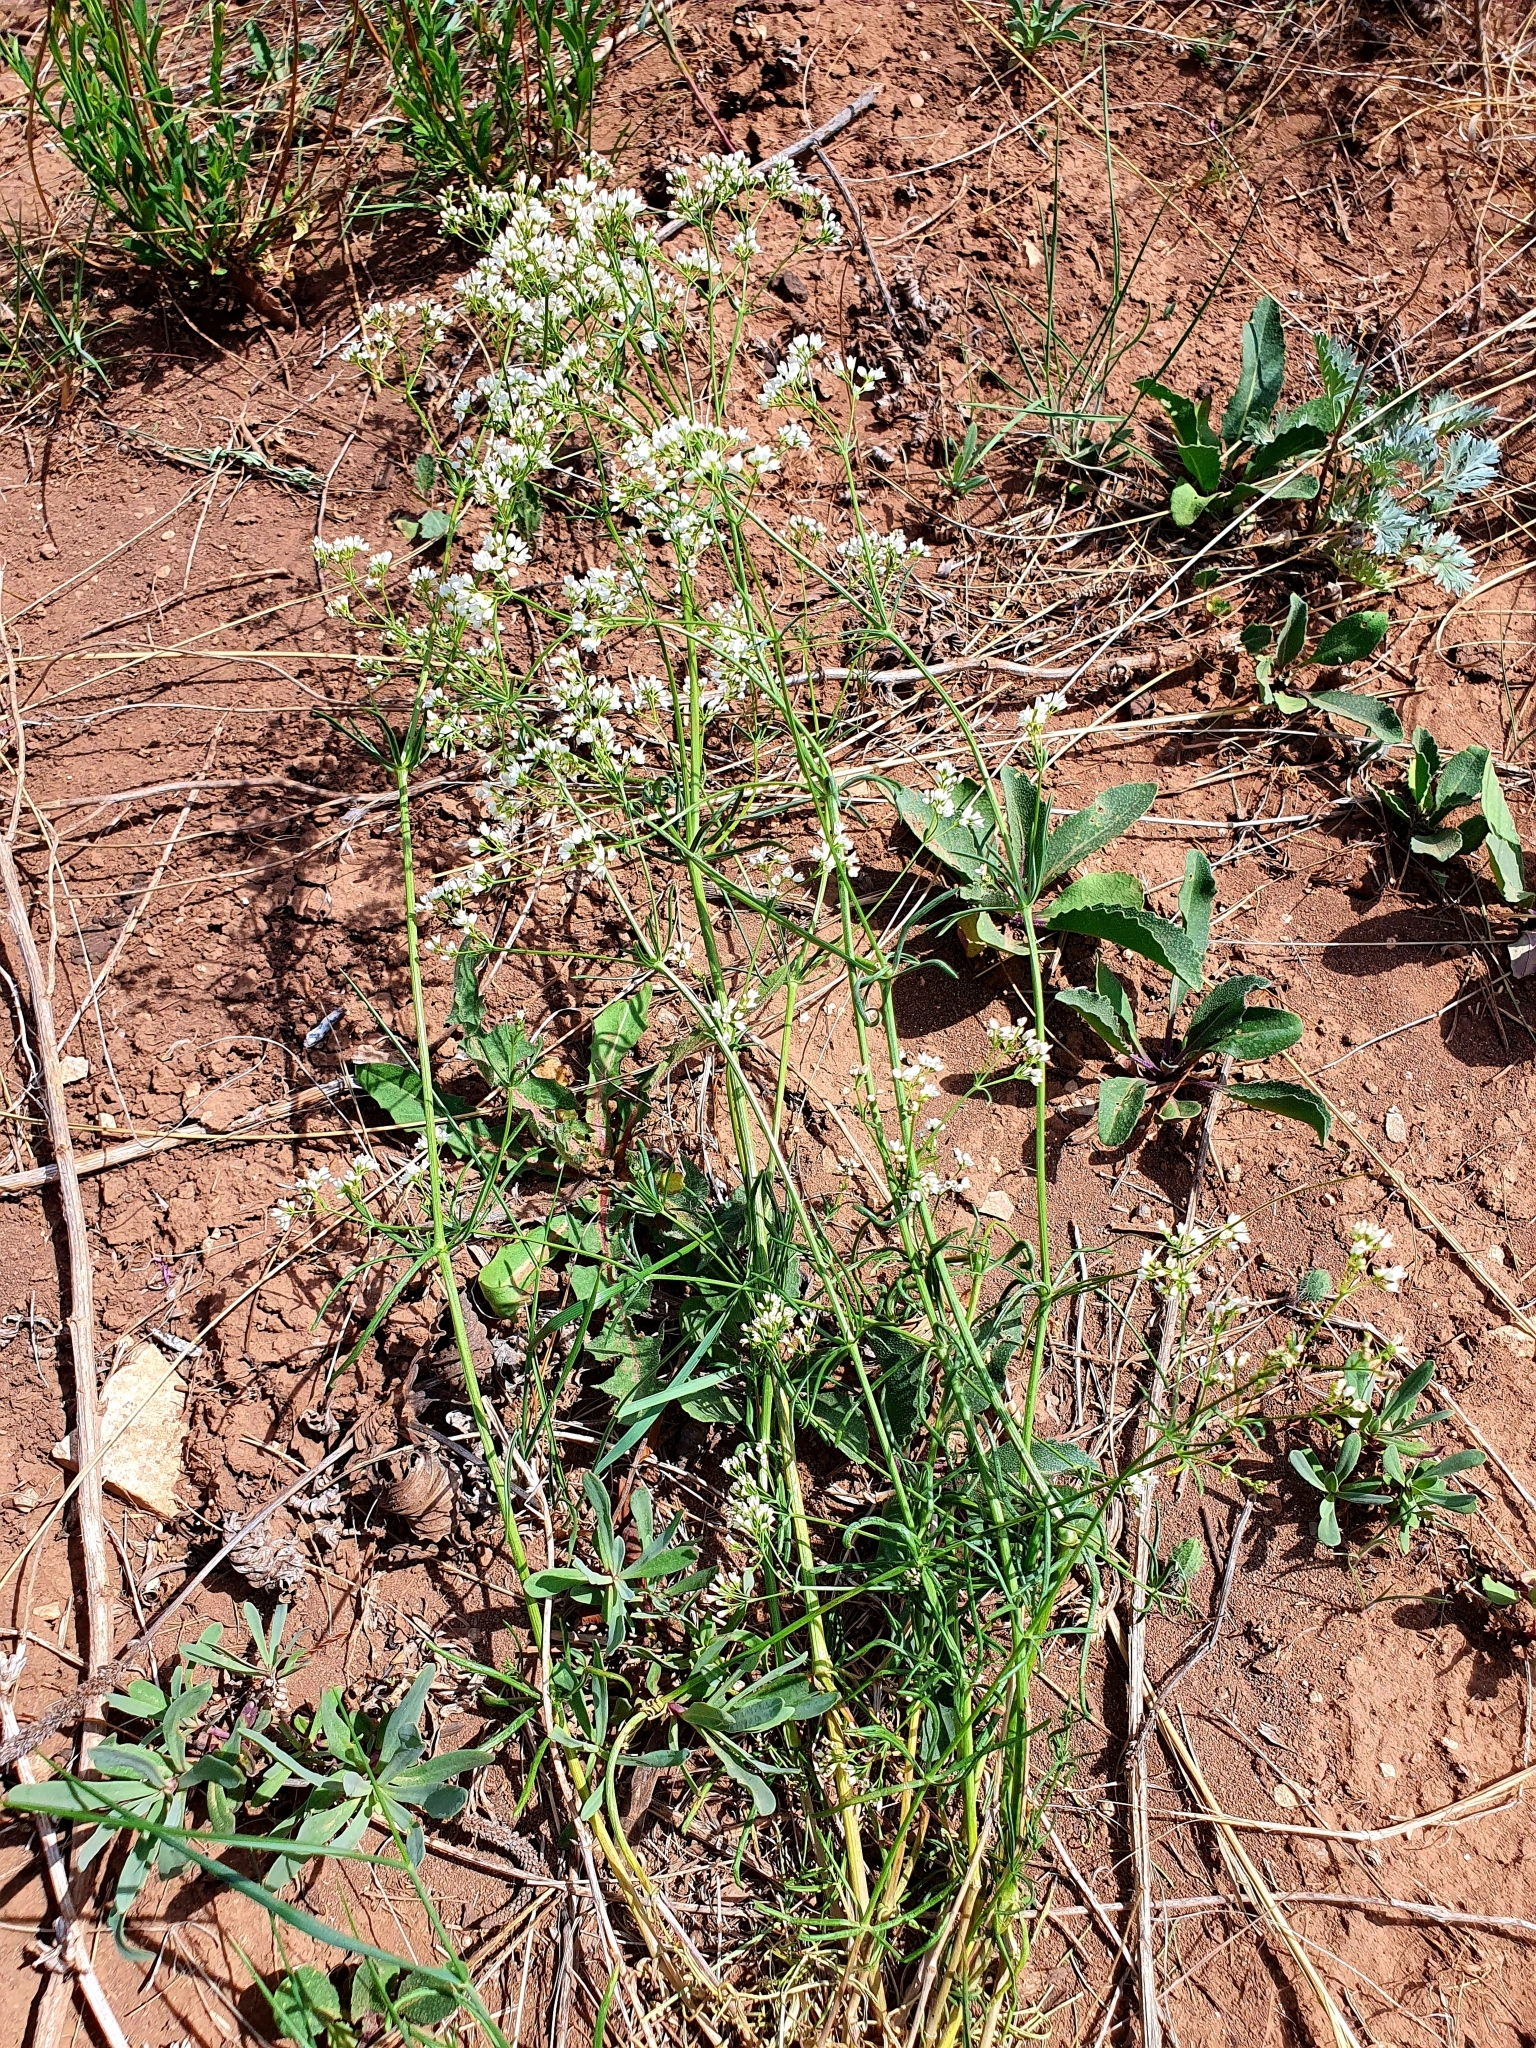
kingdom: Plantae
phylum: Tracheophyta
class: Magnoliopsida
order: Gentianales
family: Rubiaceae
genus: Galium
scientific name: Galium octonarium
